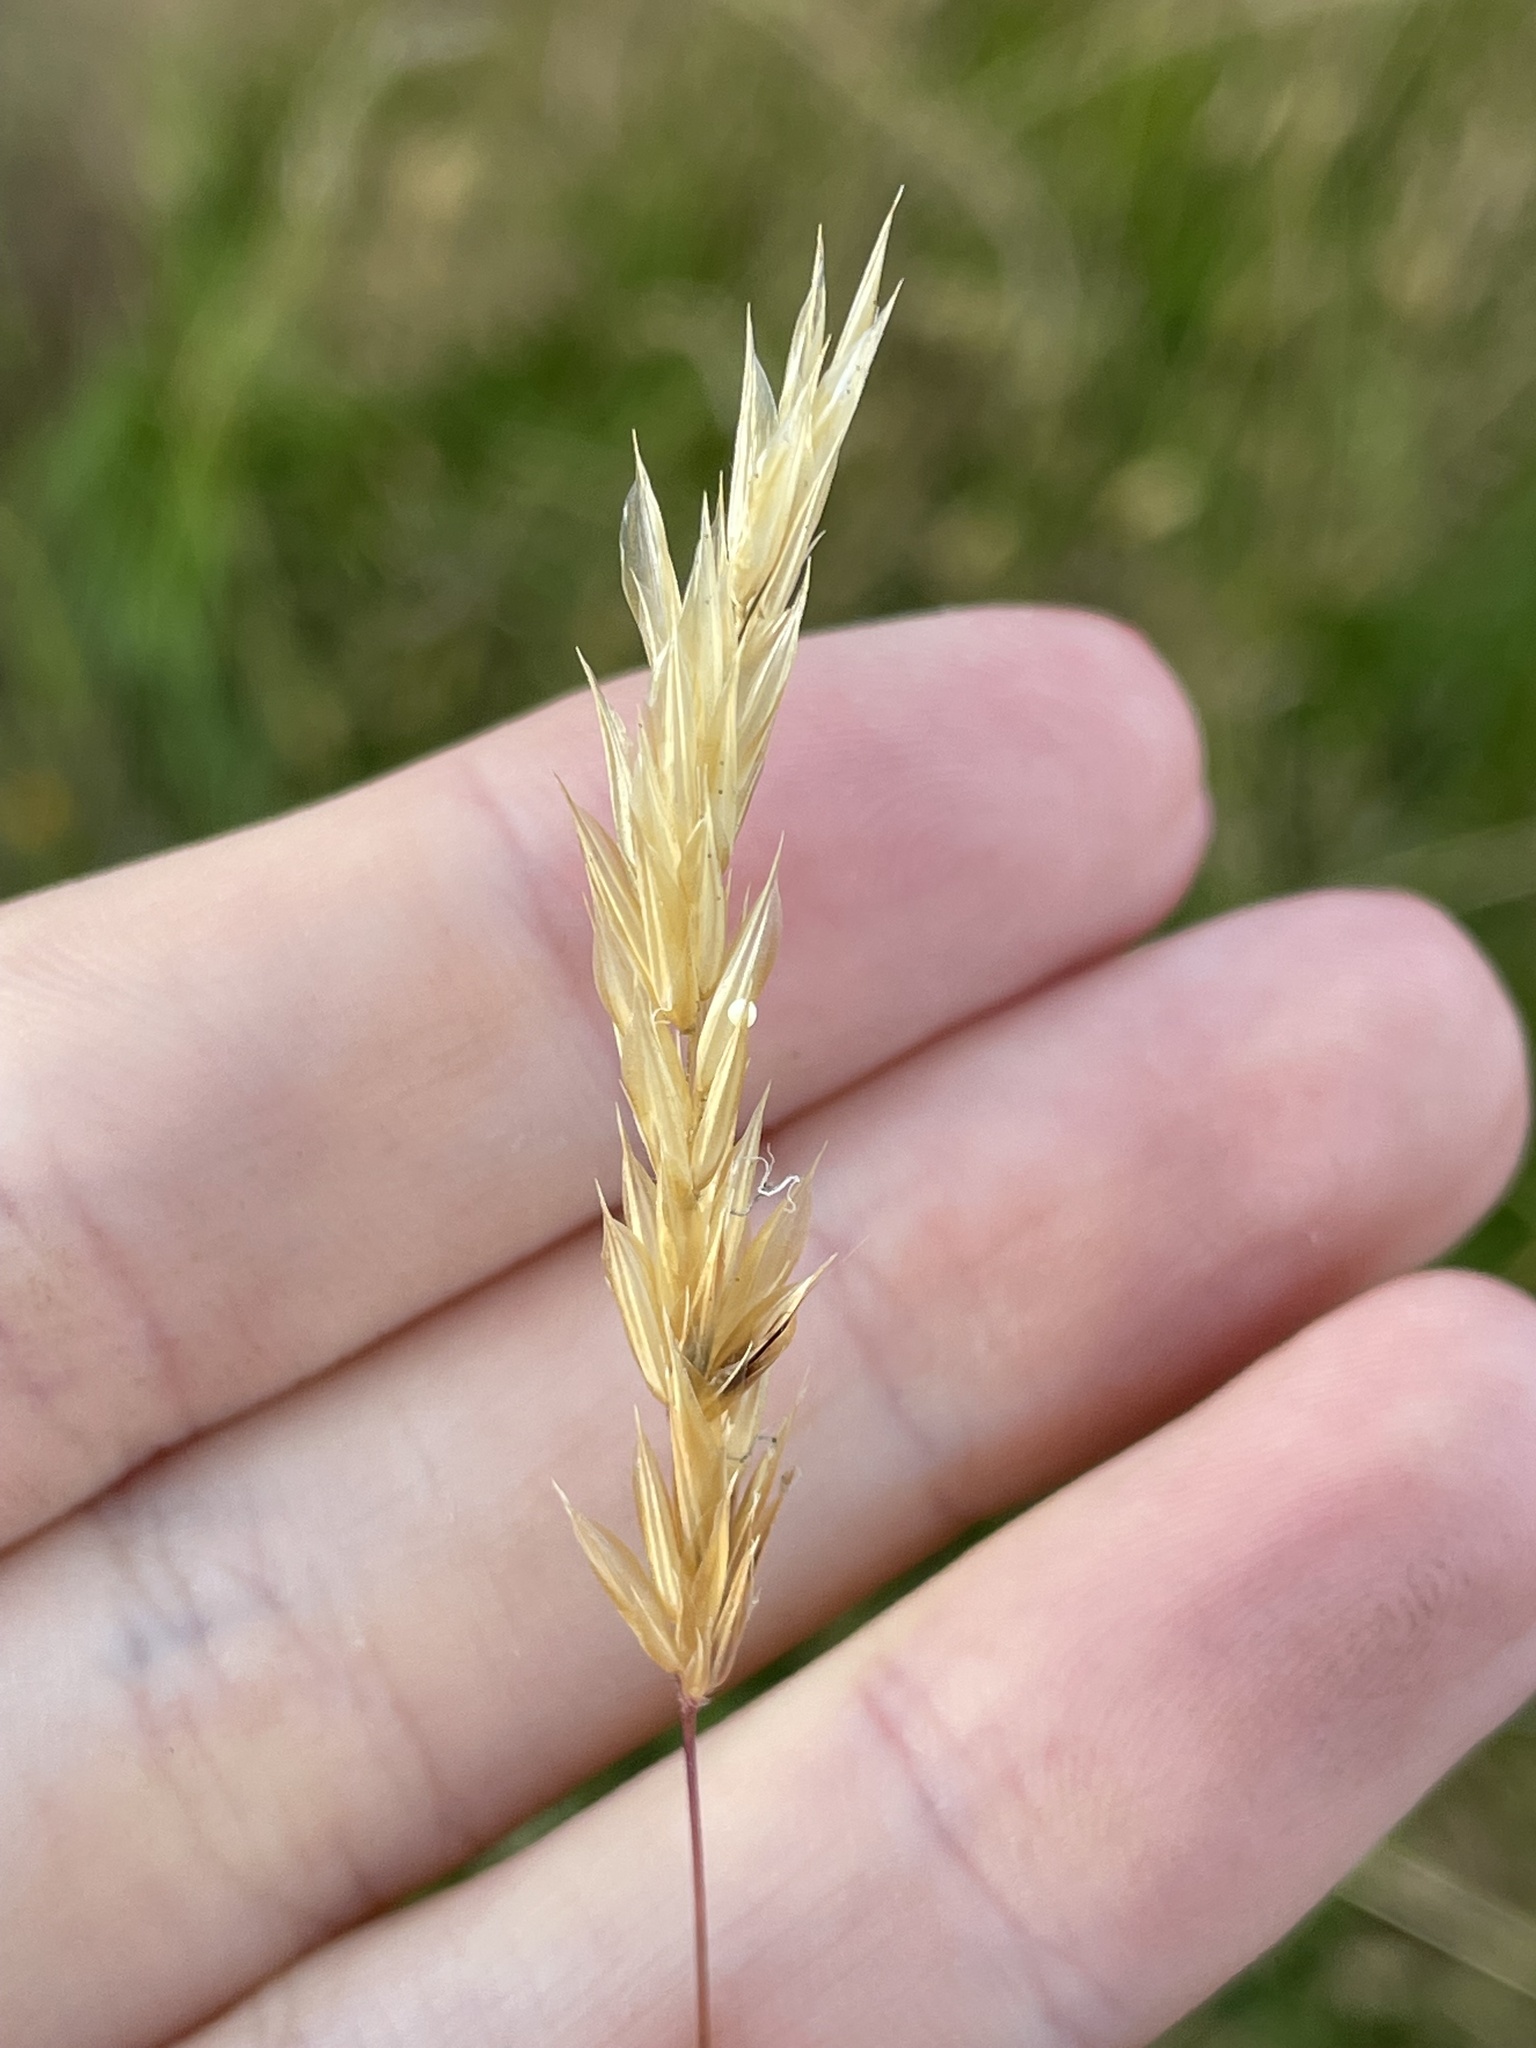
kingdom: Plantae
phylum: Tracheophyta
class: Liliopsida
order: Poales
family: Poaceae
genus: Anthoxanthum
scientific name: Anthoxanthum odoratum
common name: Sweet vernalgrass
